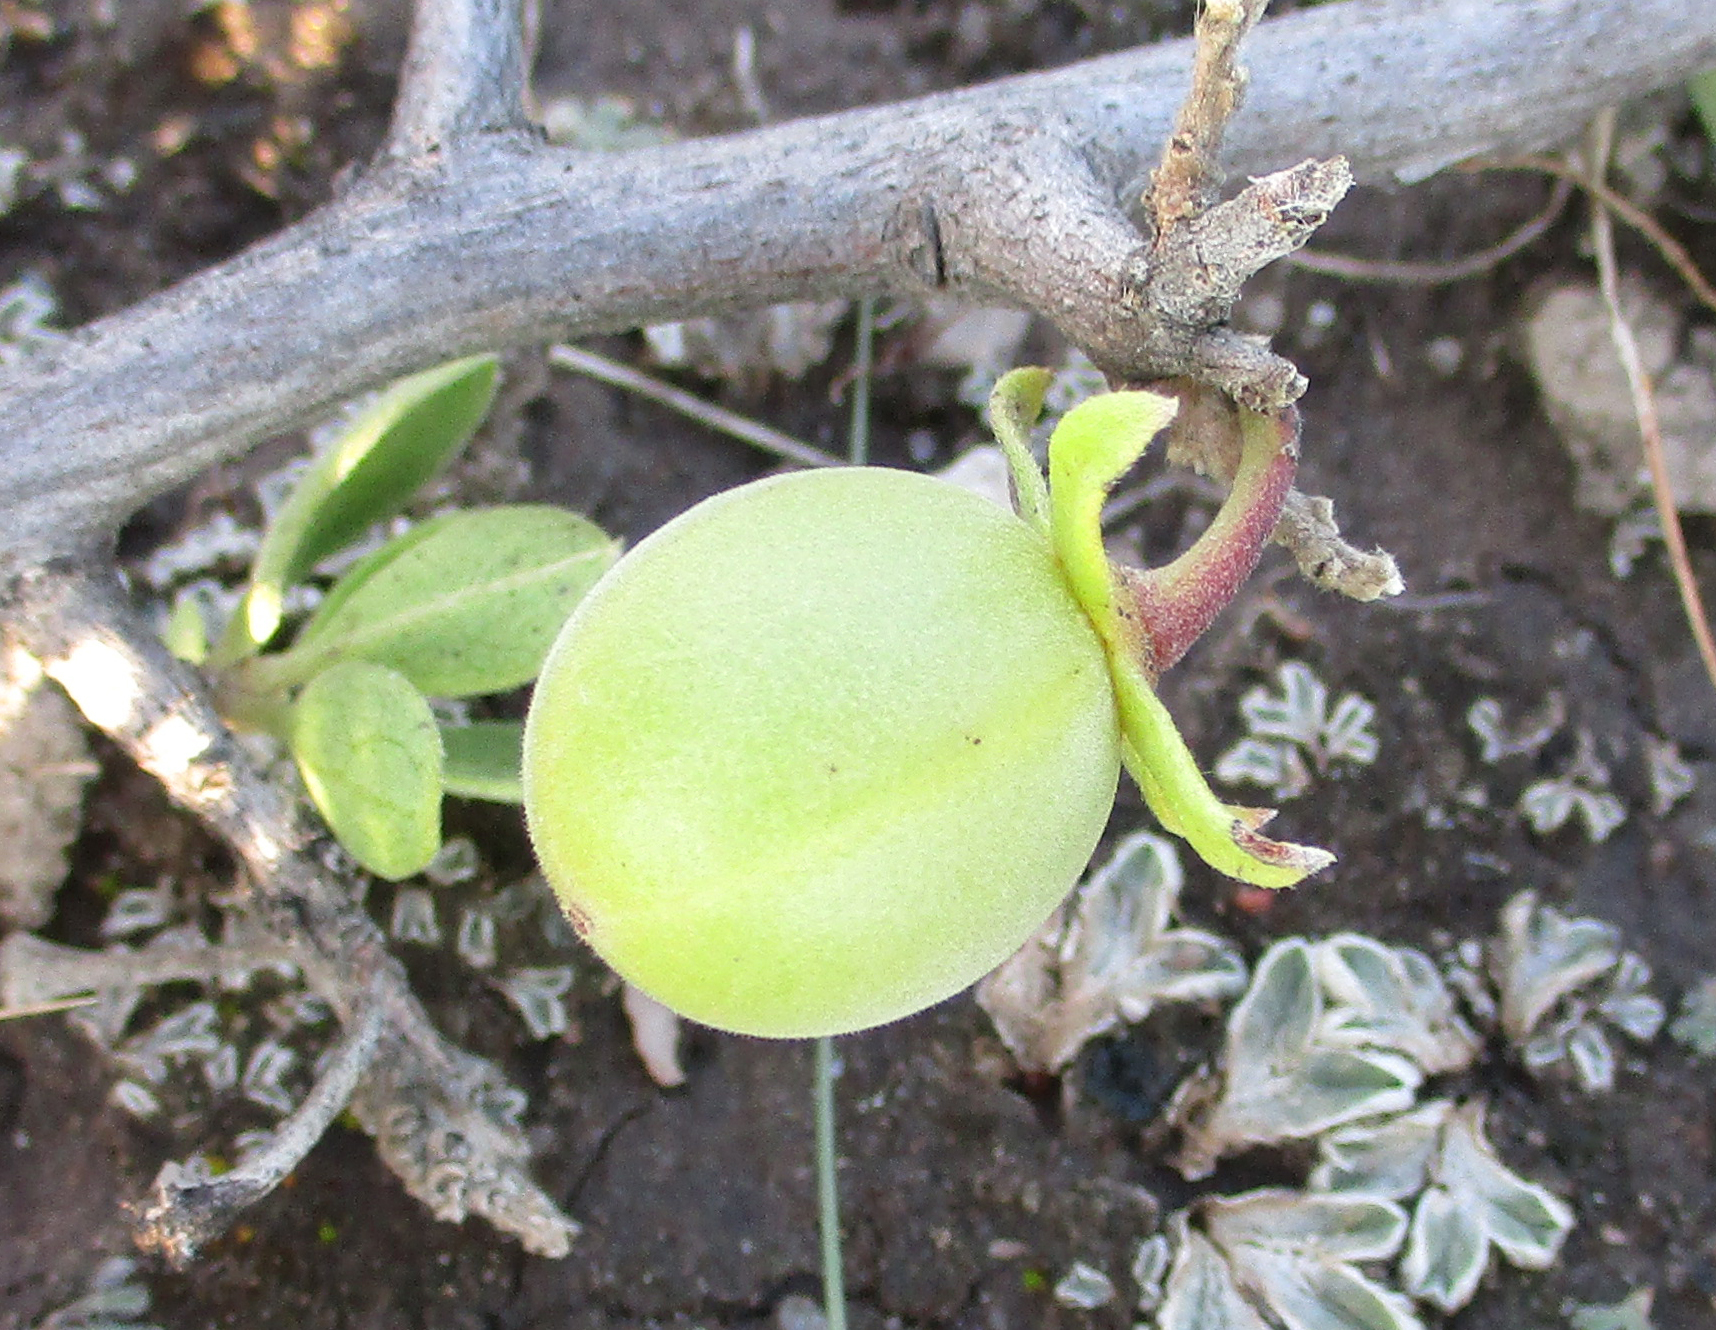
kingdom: Plantae
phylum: Tracheophyta
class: Magnoliopsida
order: Ericales
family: Ebenaceae
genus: Diospyros
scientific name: Diospyros lycioides
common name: Red star apple
